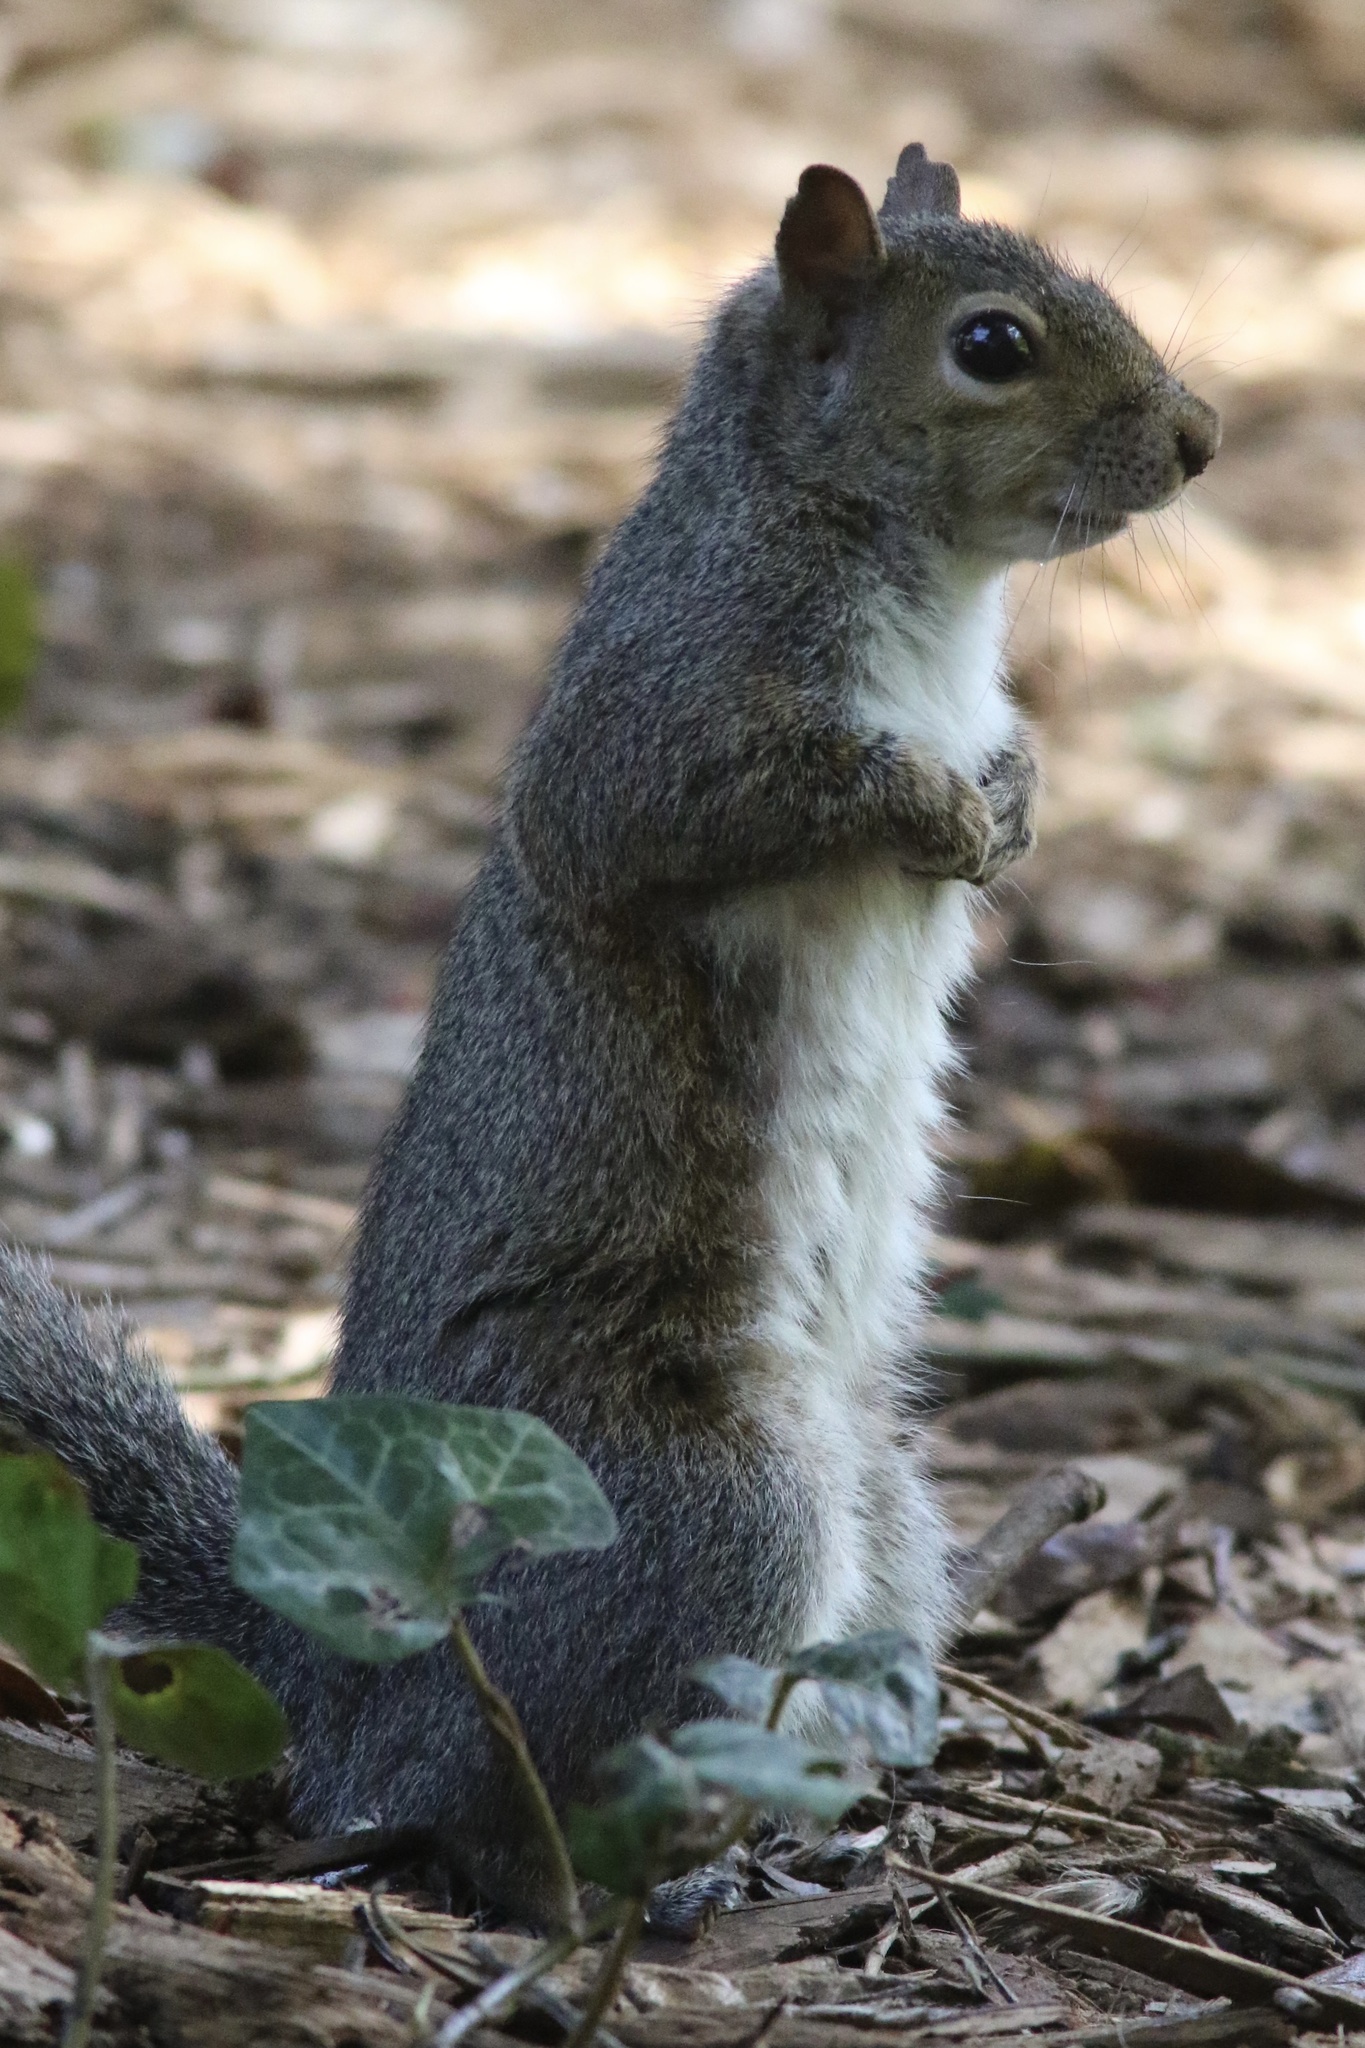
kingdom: Animalia
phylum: Chordata
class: Mammalia
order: Rodentia
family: Sciuridae
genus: Sciurus
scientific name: Sciurus carolinensis
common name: Eastern gray squirrel
